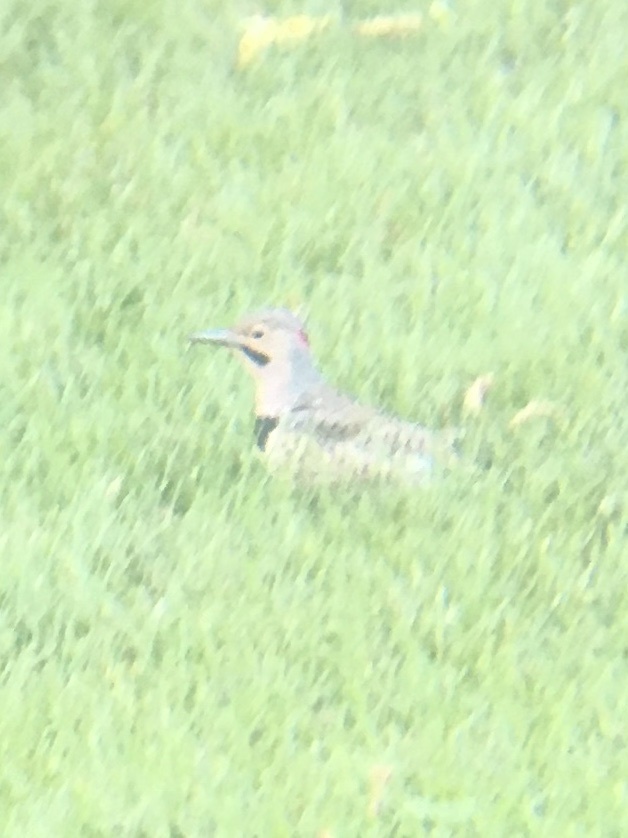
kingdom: Animalia
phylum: Chordata
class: Aves
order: Piciformes
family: Picidae
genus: Colaptes
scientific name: Colaptes auratus
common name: Northern flicker
